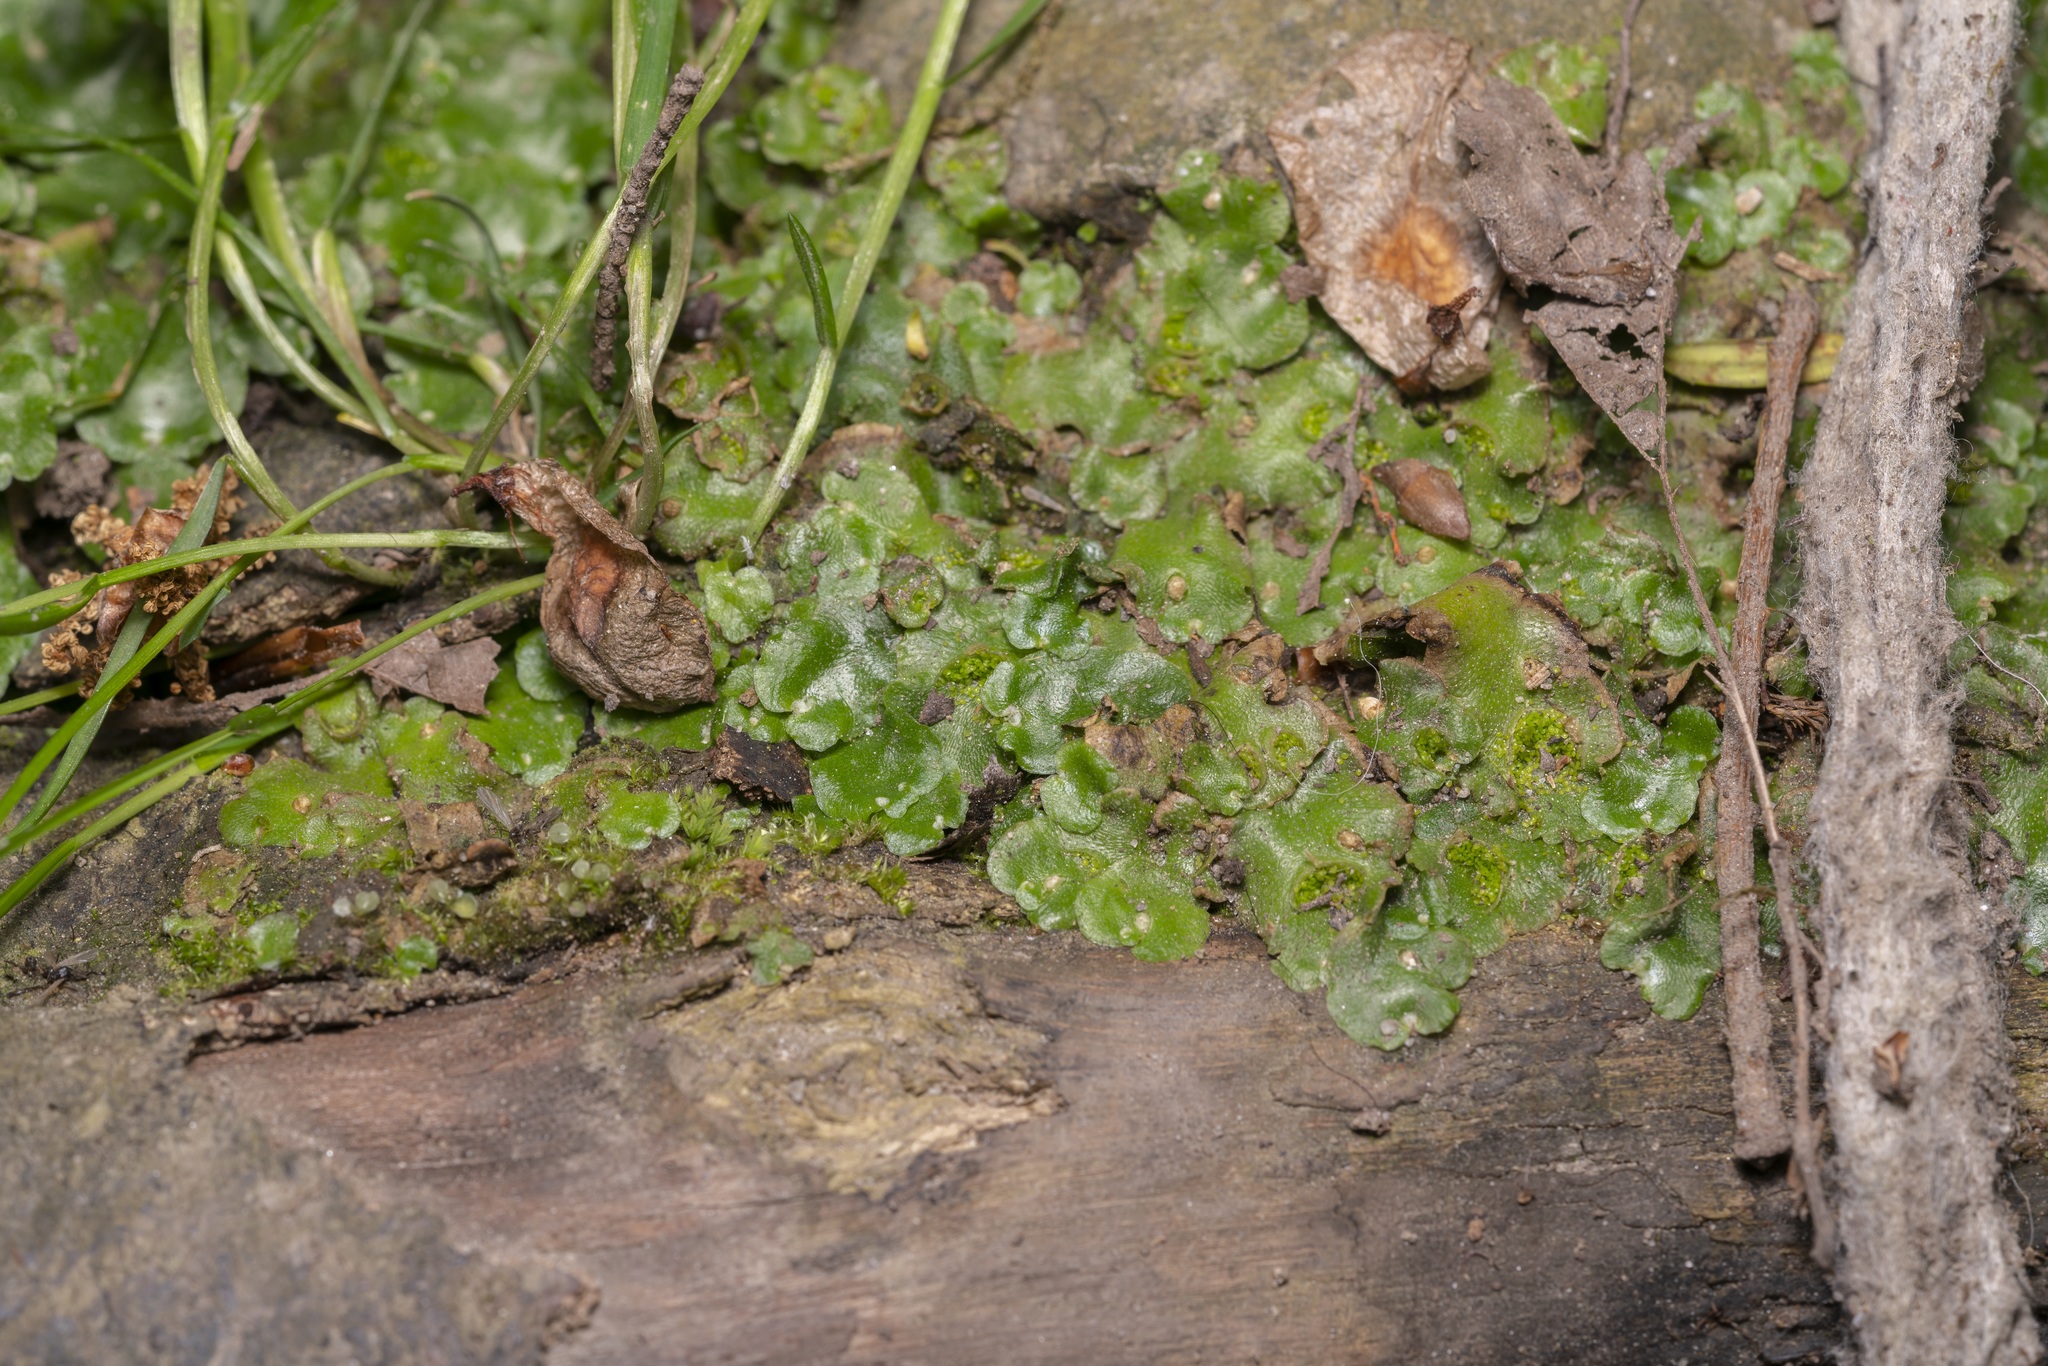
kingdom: Plantae
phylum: Marchantiophyta
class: Marchantiopsida
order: Lunulariales
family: Lunulariaceae
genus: Lunularia
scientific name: Lunularia cruciata
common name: Crescent-cup liverwort
